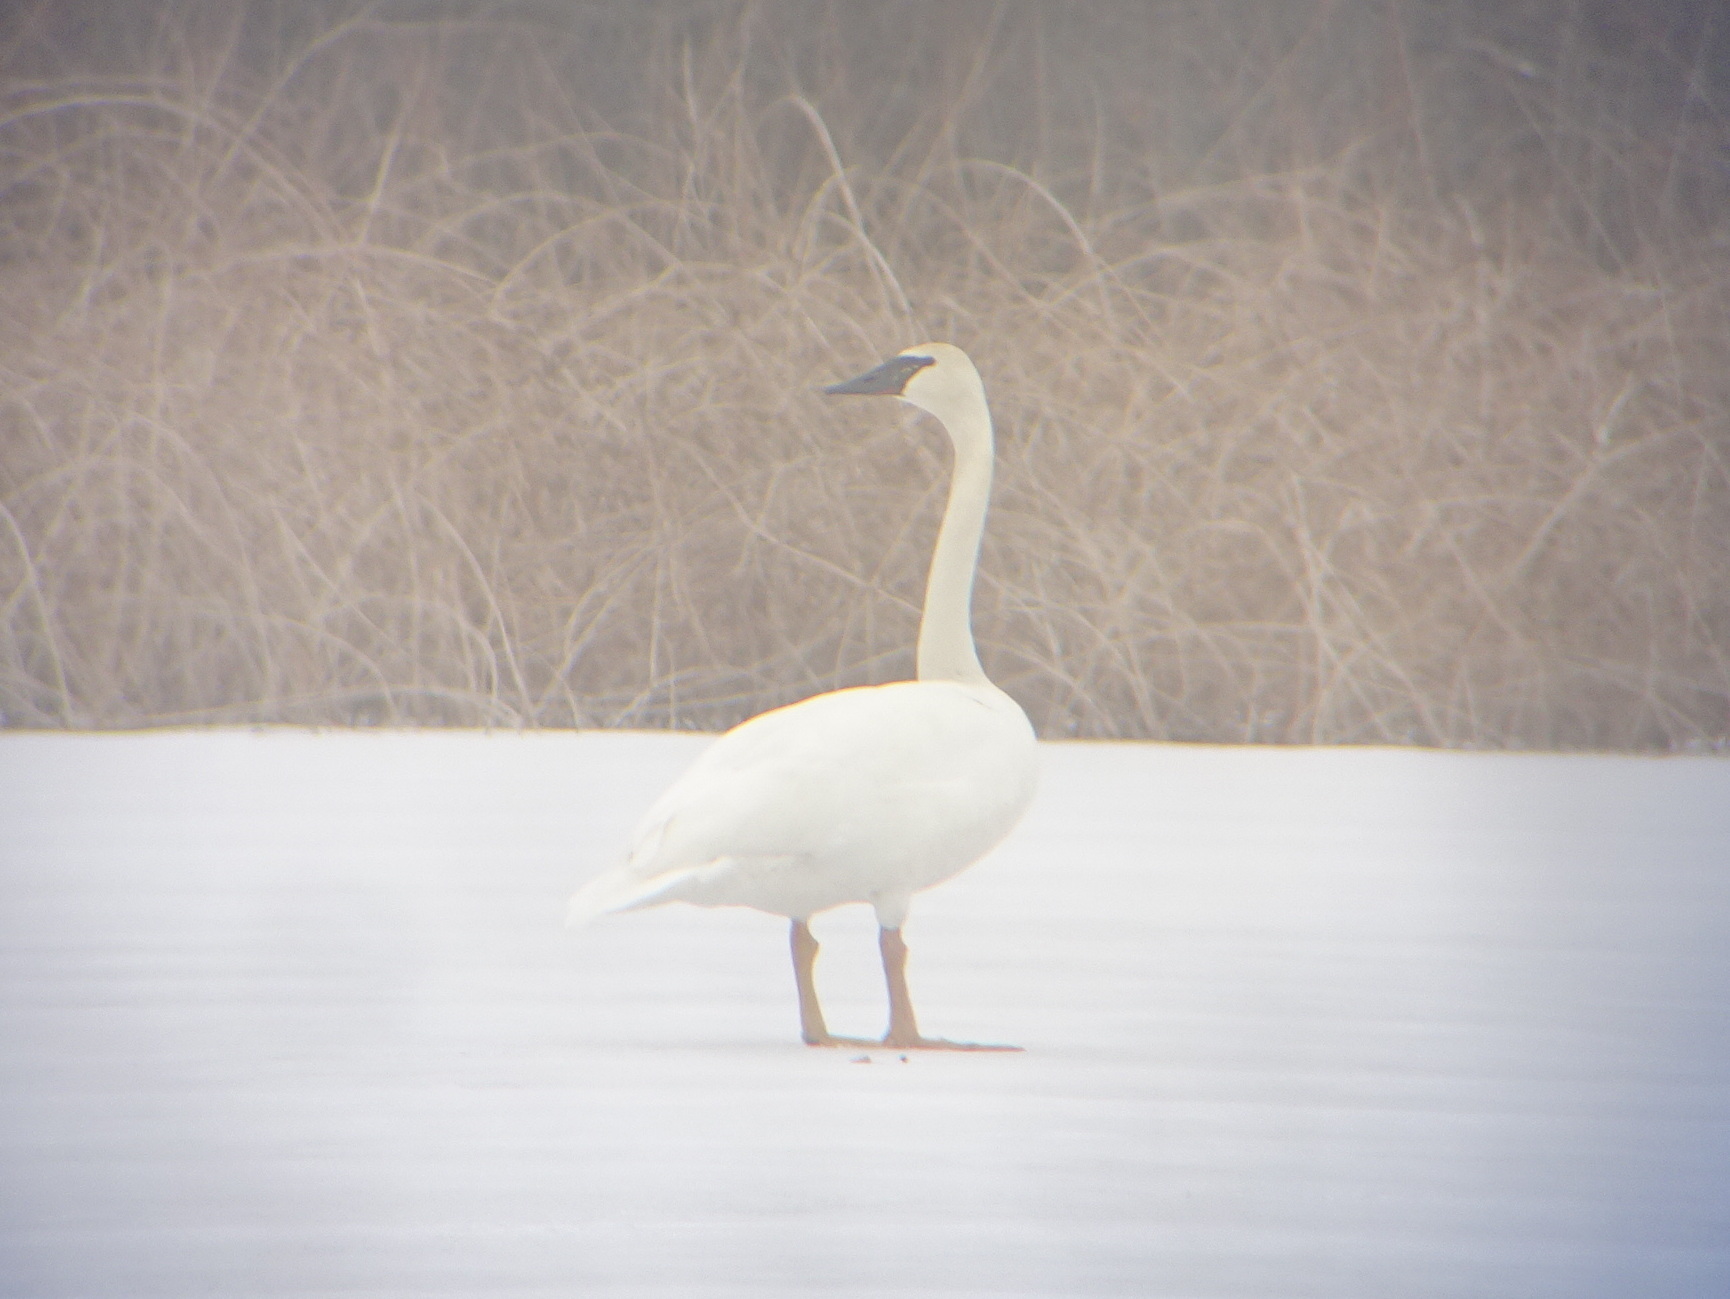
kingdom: Animalia
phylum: Chordata
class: Aves
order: Anseriformes
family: Anatidae
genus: Cygnus
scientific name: Cygnus buccinator
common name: Trumpeter swan
